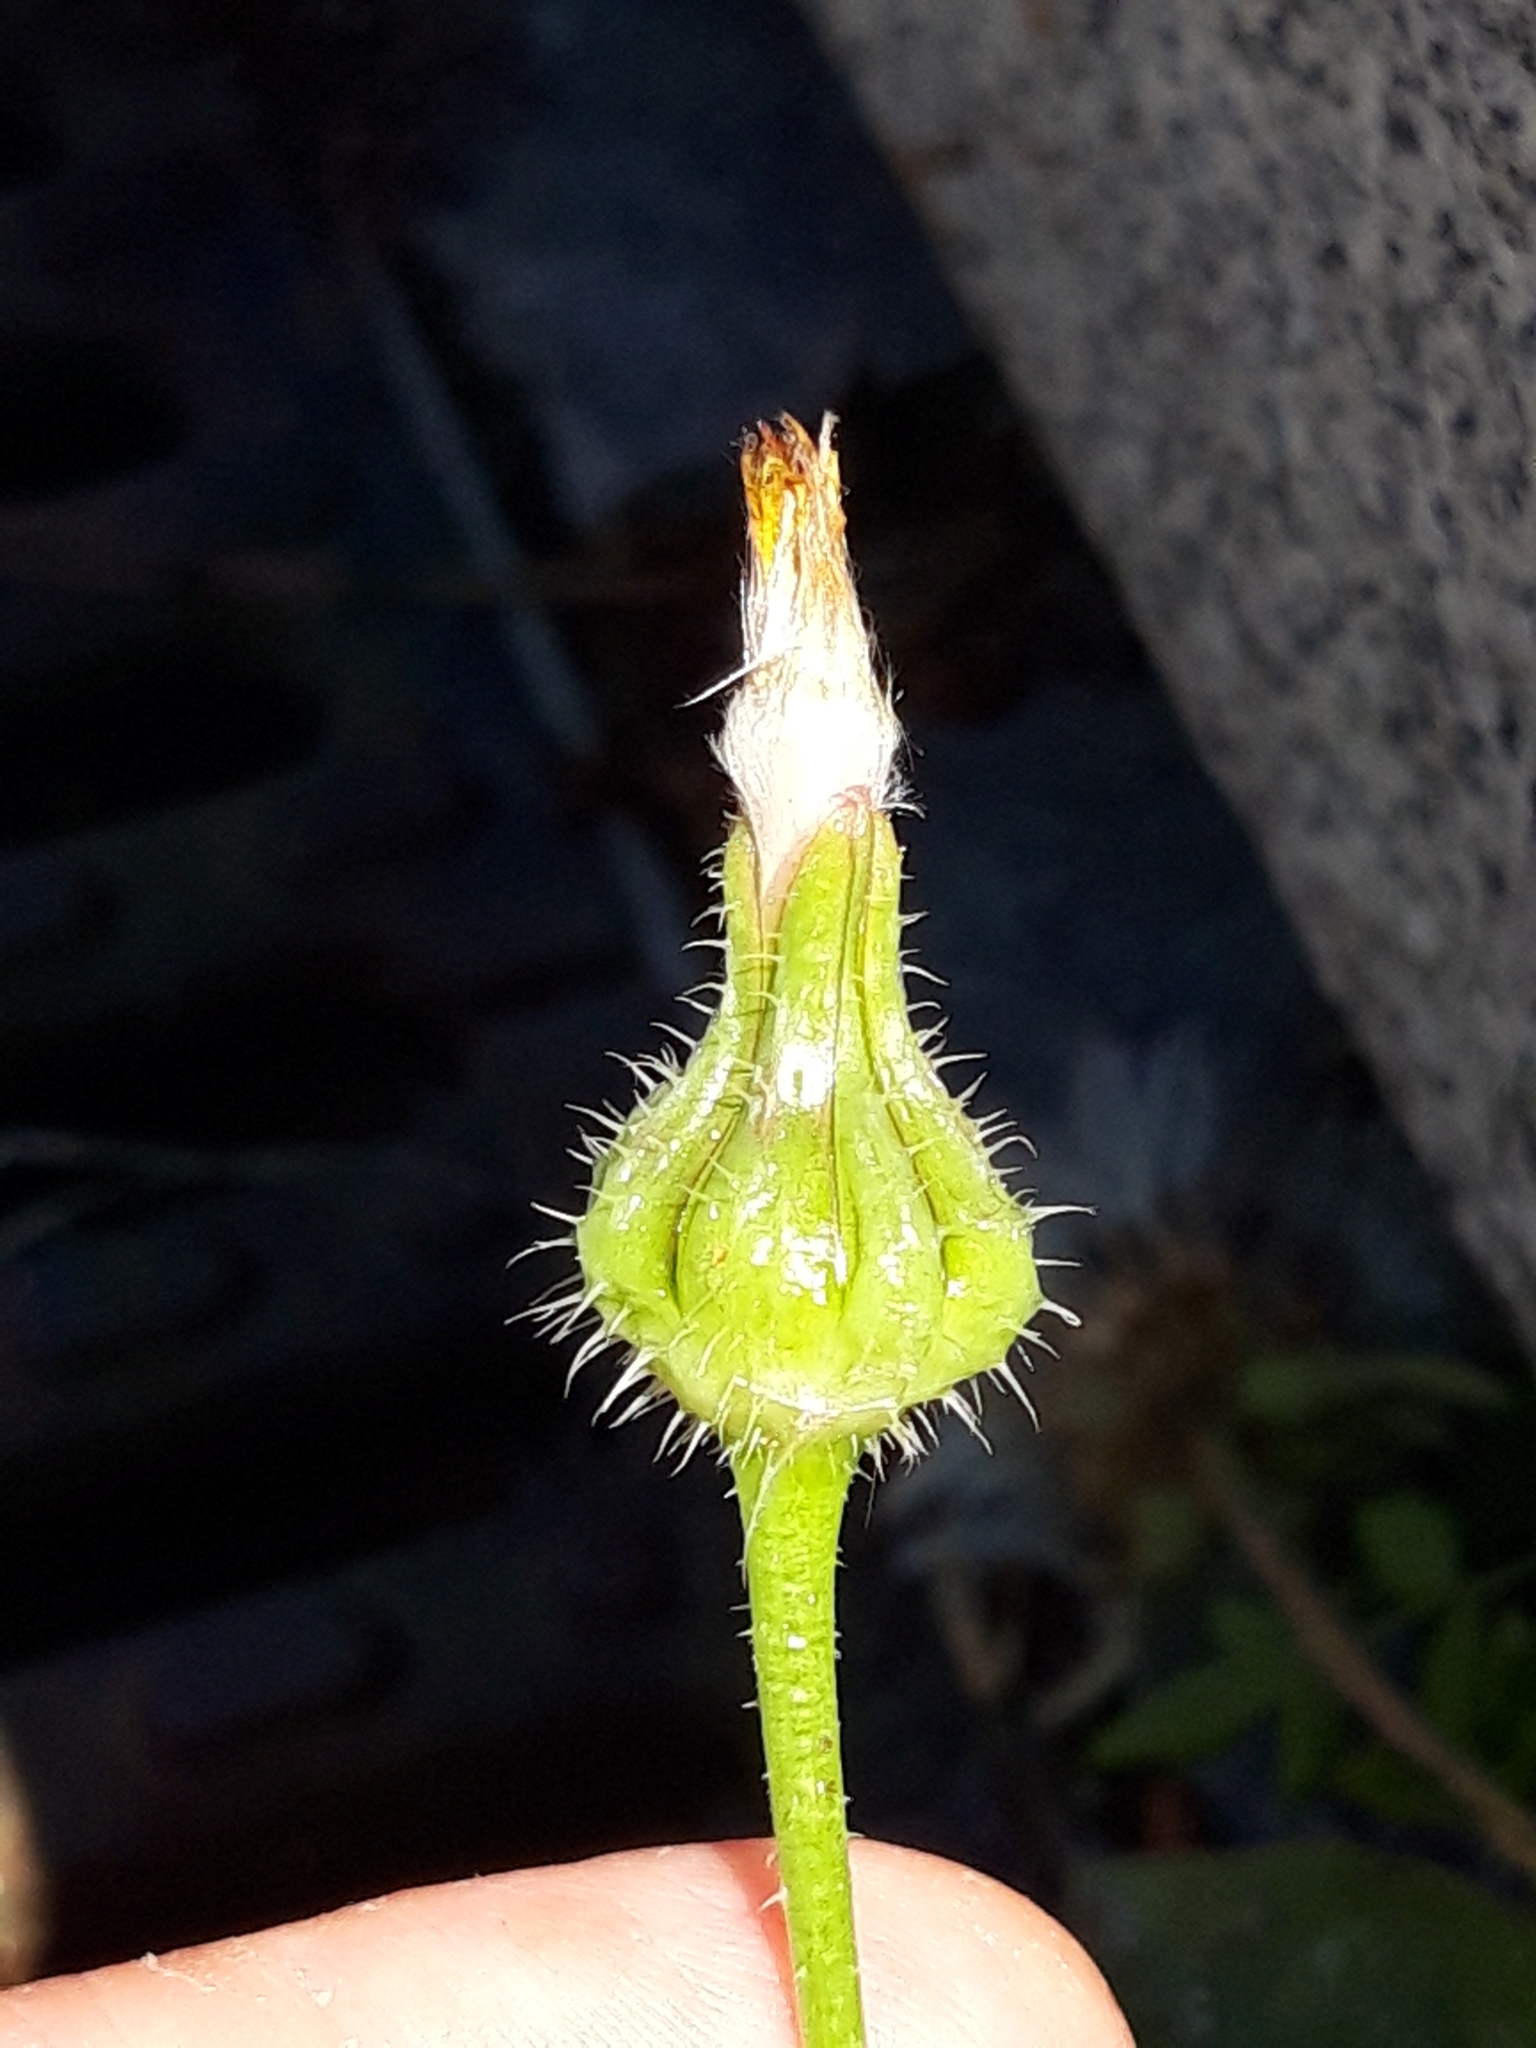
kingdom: Plantae
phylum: Tracheophyta
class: Magnoliopsida
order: Asterales
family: Asteraceae
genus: Urospermum
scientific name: Urospermum picroides
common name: False hawkbit
